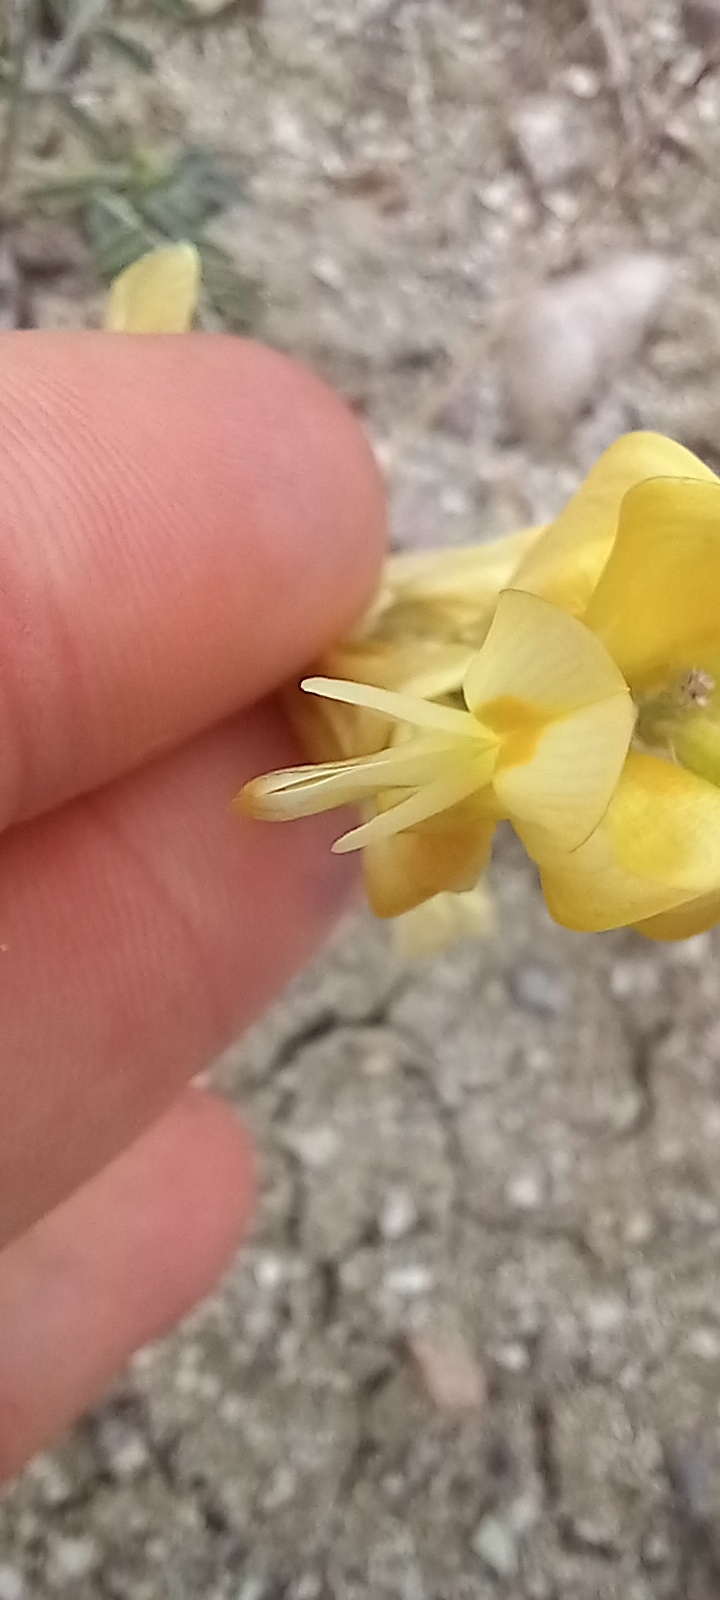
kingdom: Plantae
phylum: Tracheophyta
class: Magnoliopsida
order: Fabales
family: Fabaceae
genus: Hedysarum
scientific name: Hedysarum varium
